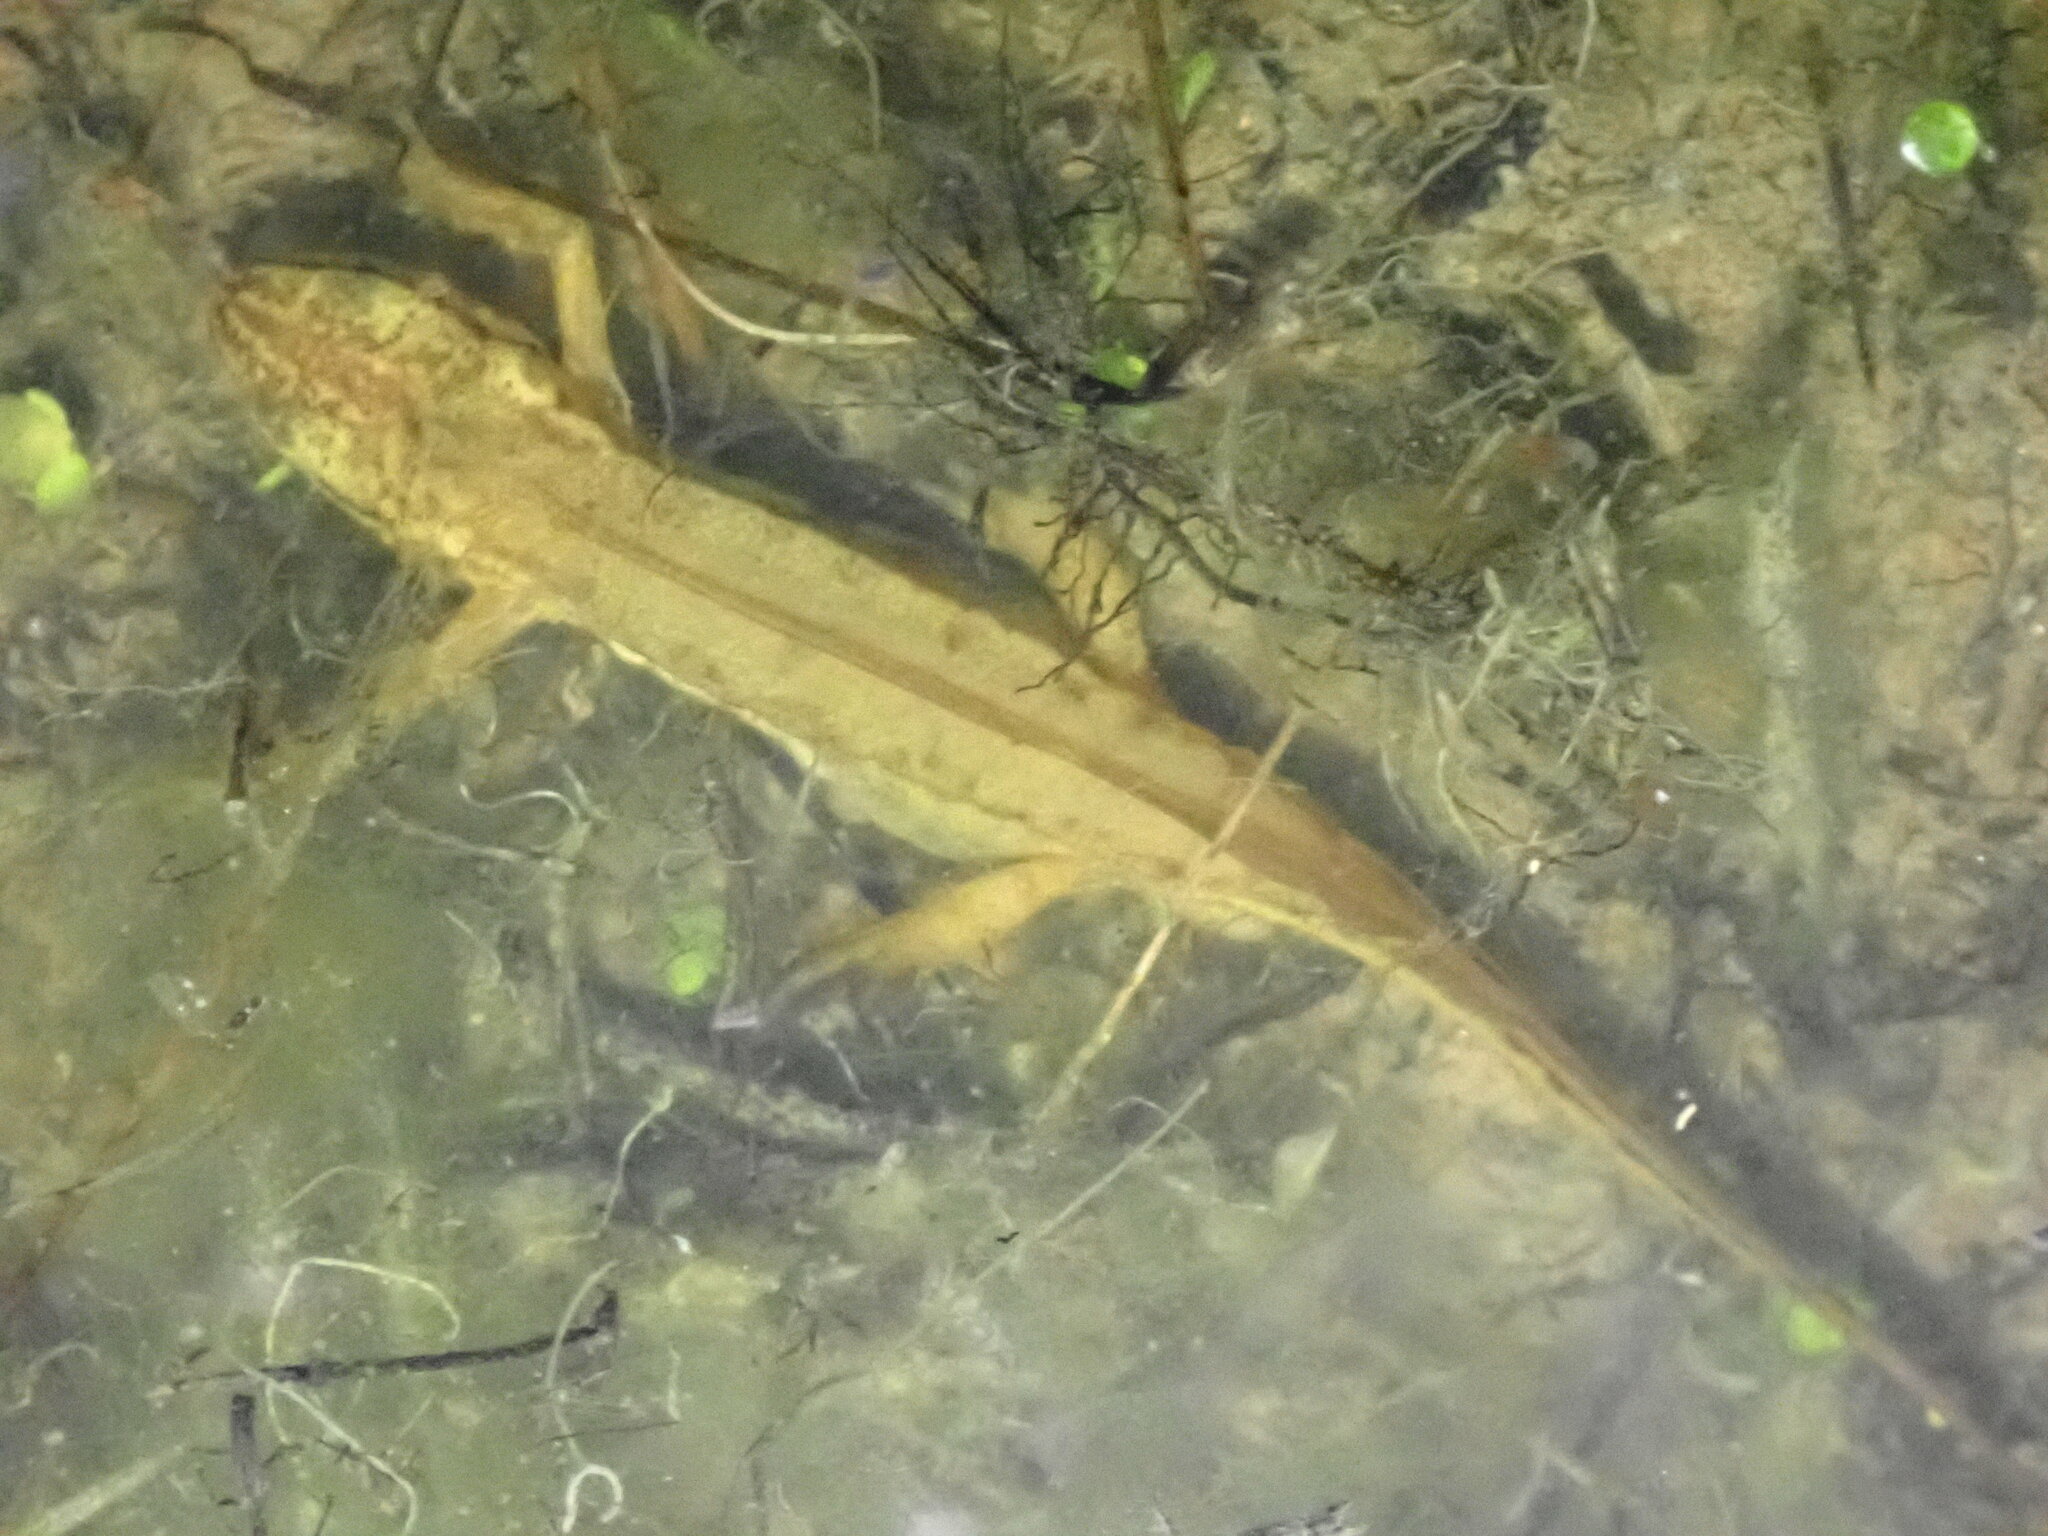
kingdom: Animalia
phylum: Chordata
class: Amphibia
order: Caudata
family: Salamandridae
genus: Lissotriton
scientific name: Lissotriton helveticus
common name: Palmate newt
